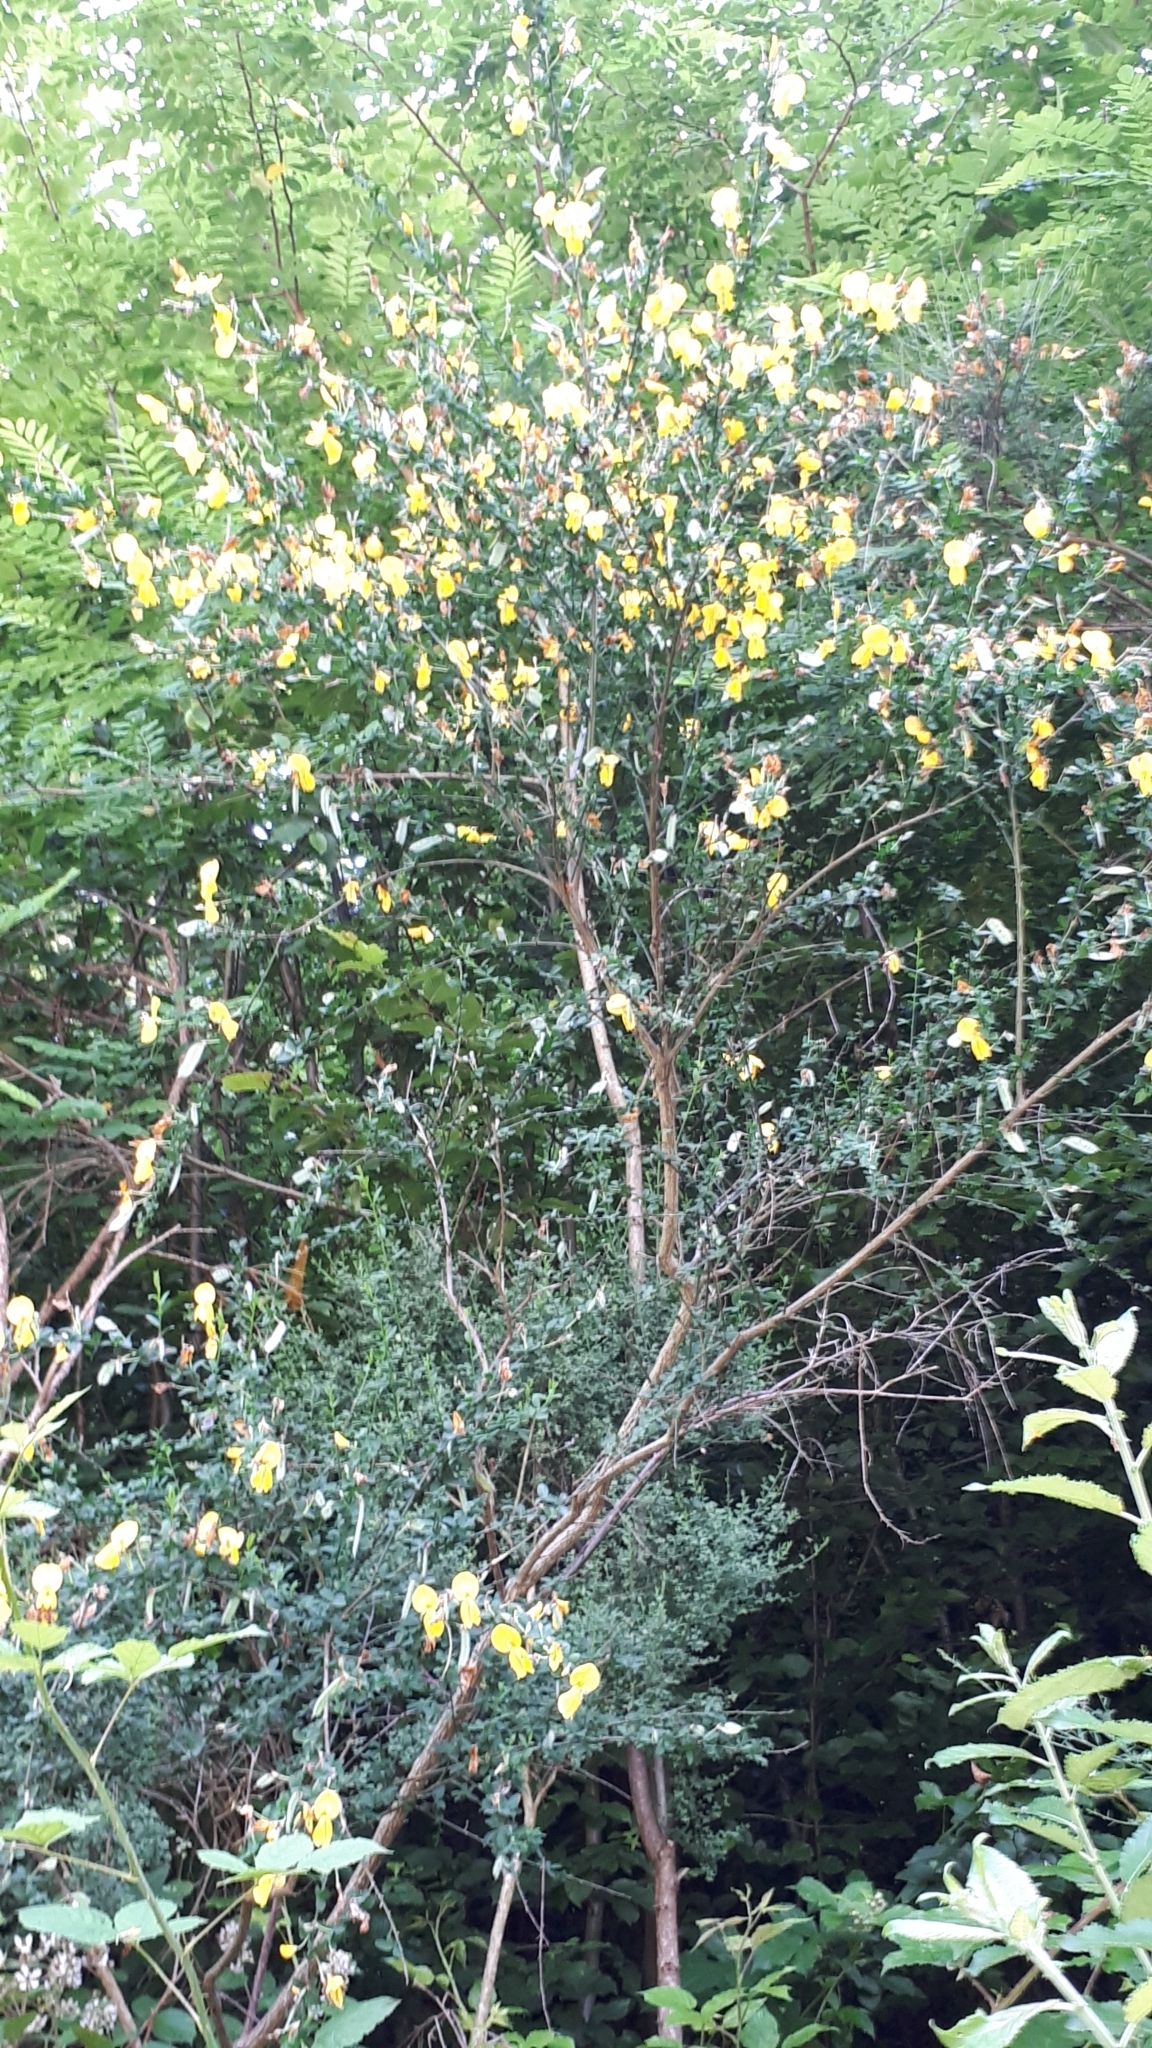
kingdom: Plantae
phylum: Tracheophyta
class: Magnoliopsida
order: Fabales
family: Fabaceae
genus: Cytisus
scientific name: Cytisus scoparius
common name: Scotch broom
